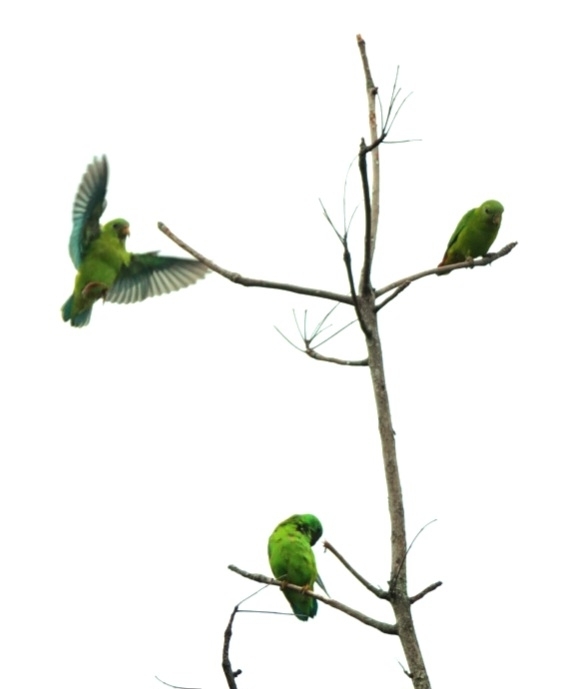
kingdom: Animalia
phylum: Chordata
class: Aves
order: Psittaciformes
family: Psittacidae
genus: Loriculus
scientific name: Loriculus galgulus
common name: Blue-crowned hanging parrot
